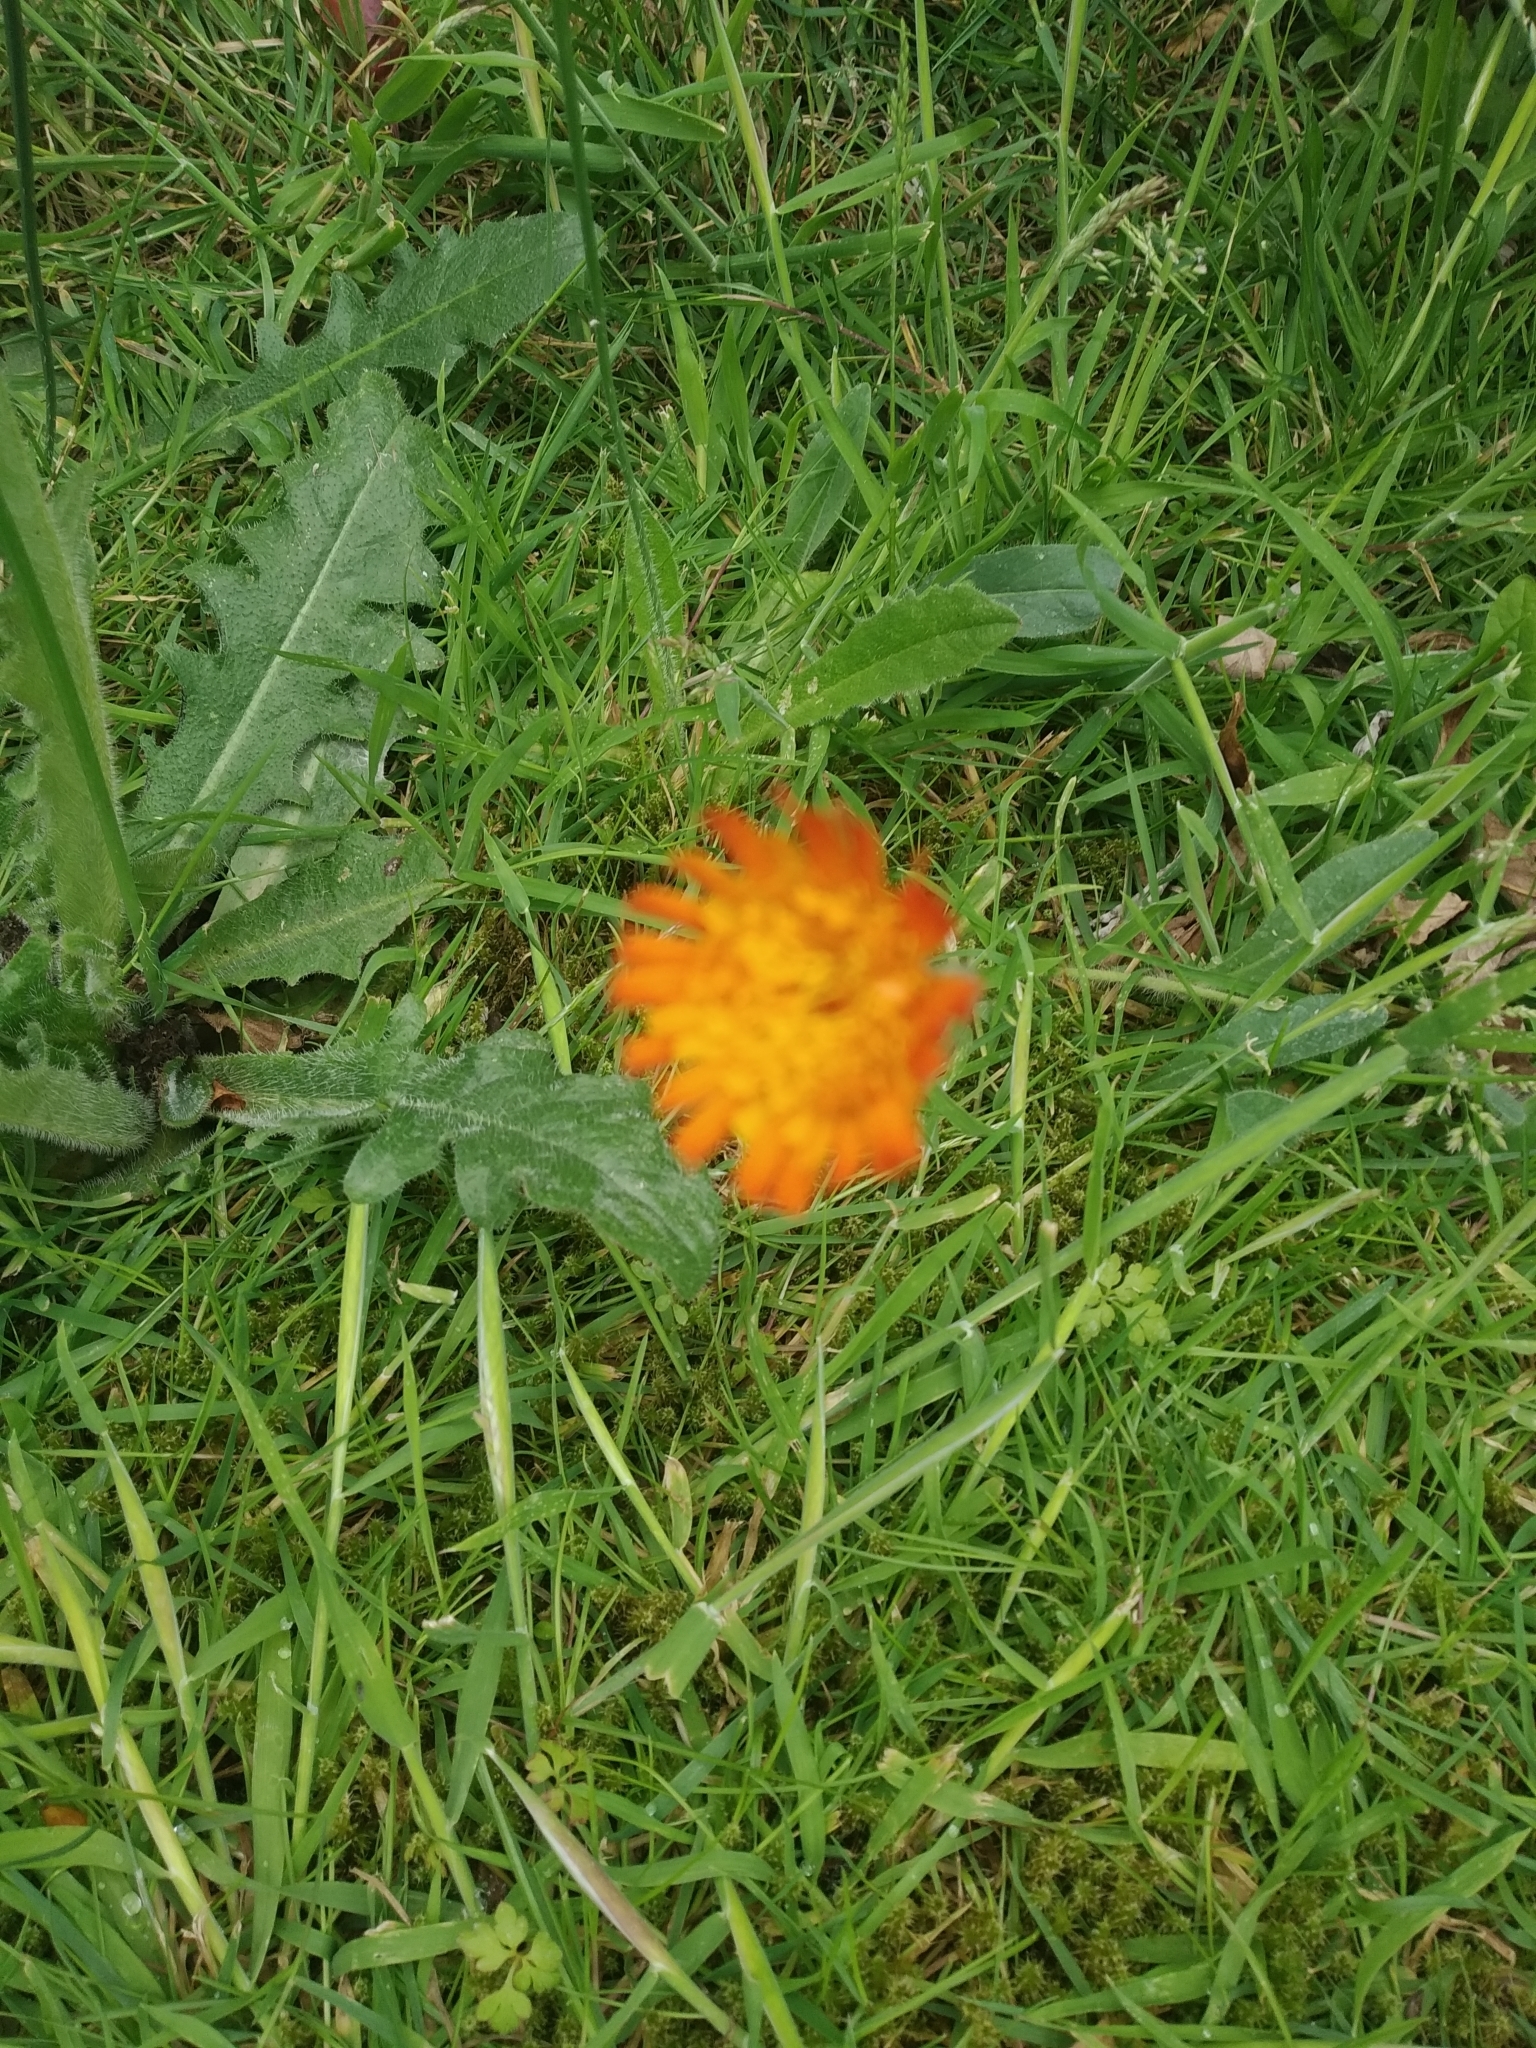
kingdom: Plantae
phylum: Tracheophyta
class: Magnoliopsida
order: Asterales
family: Asteraceae
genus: Pilosella
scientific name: Pilosella aurantiaca
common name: Fox-and-cubs
